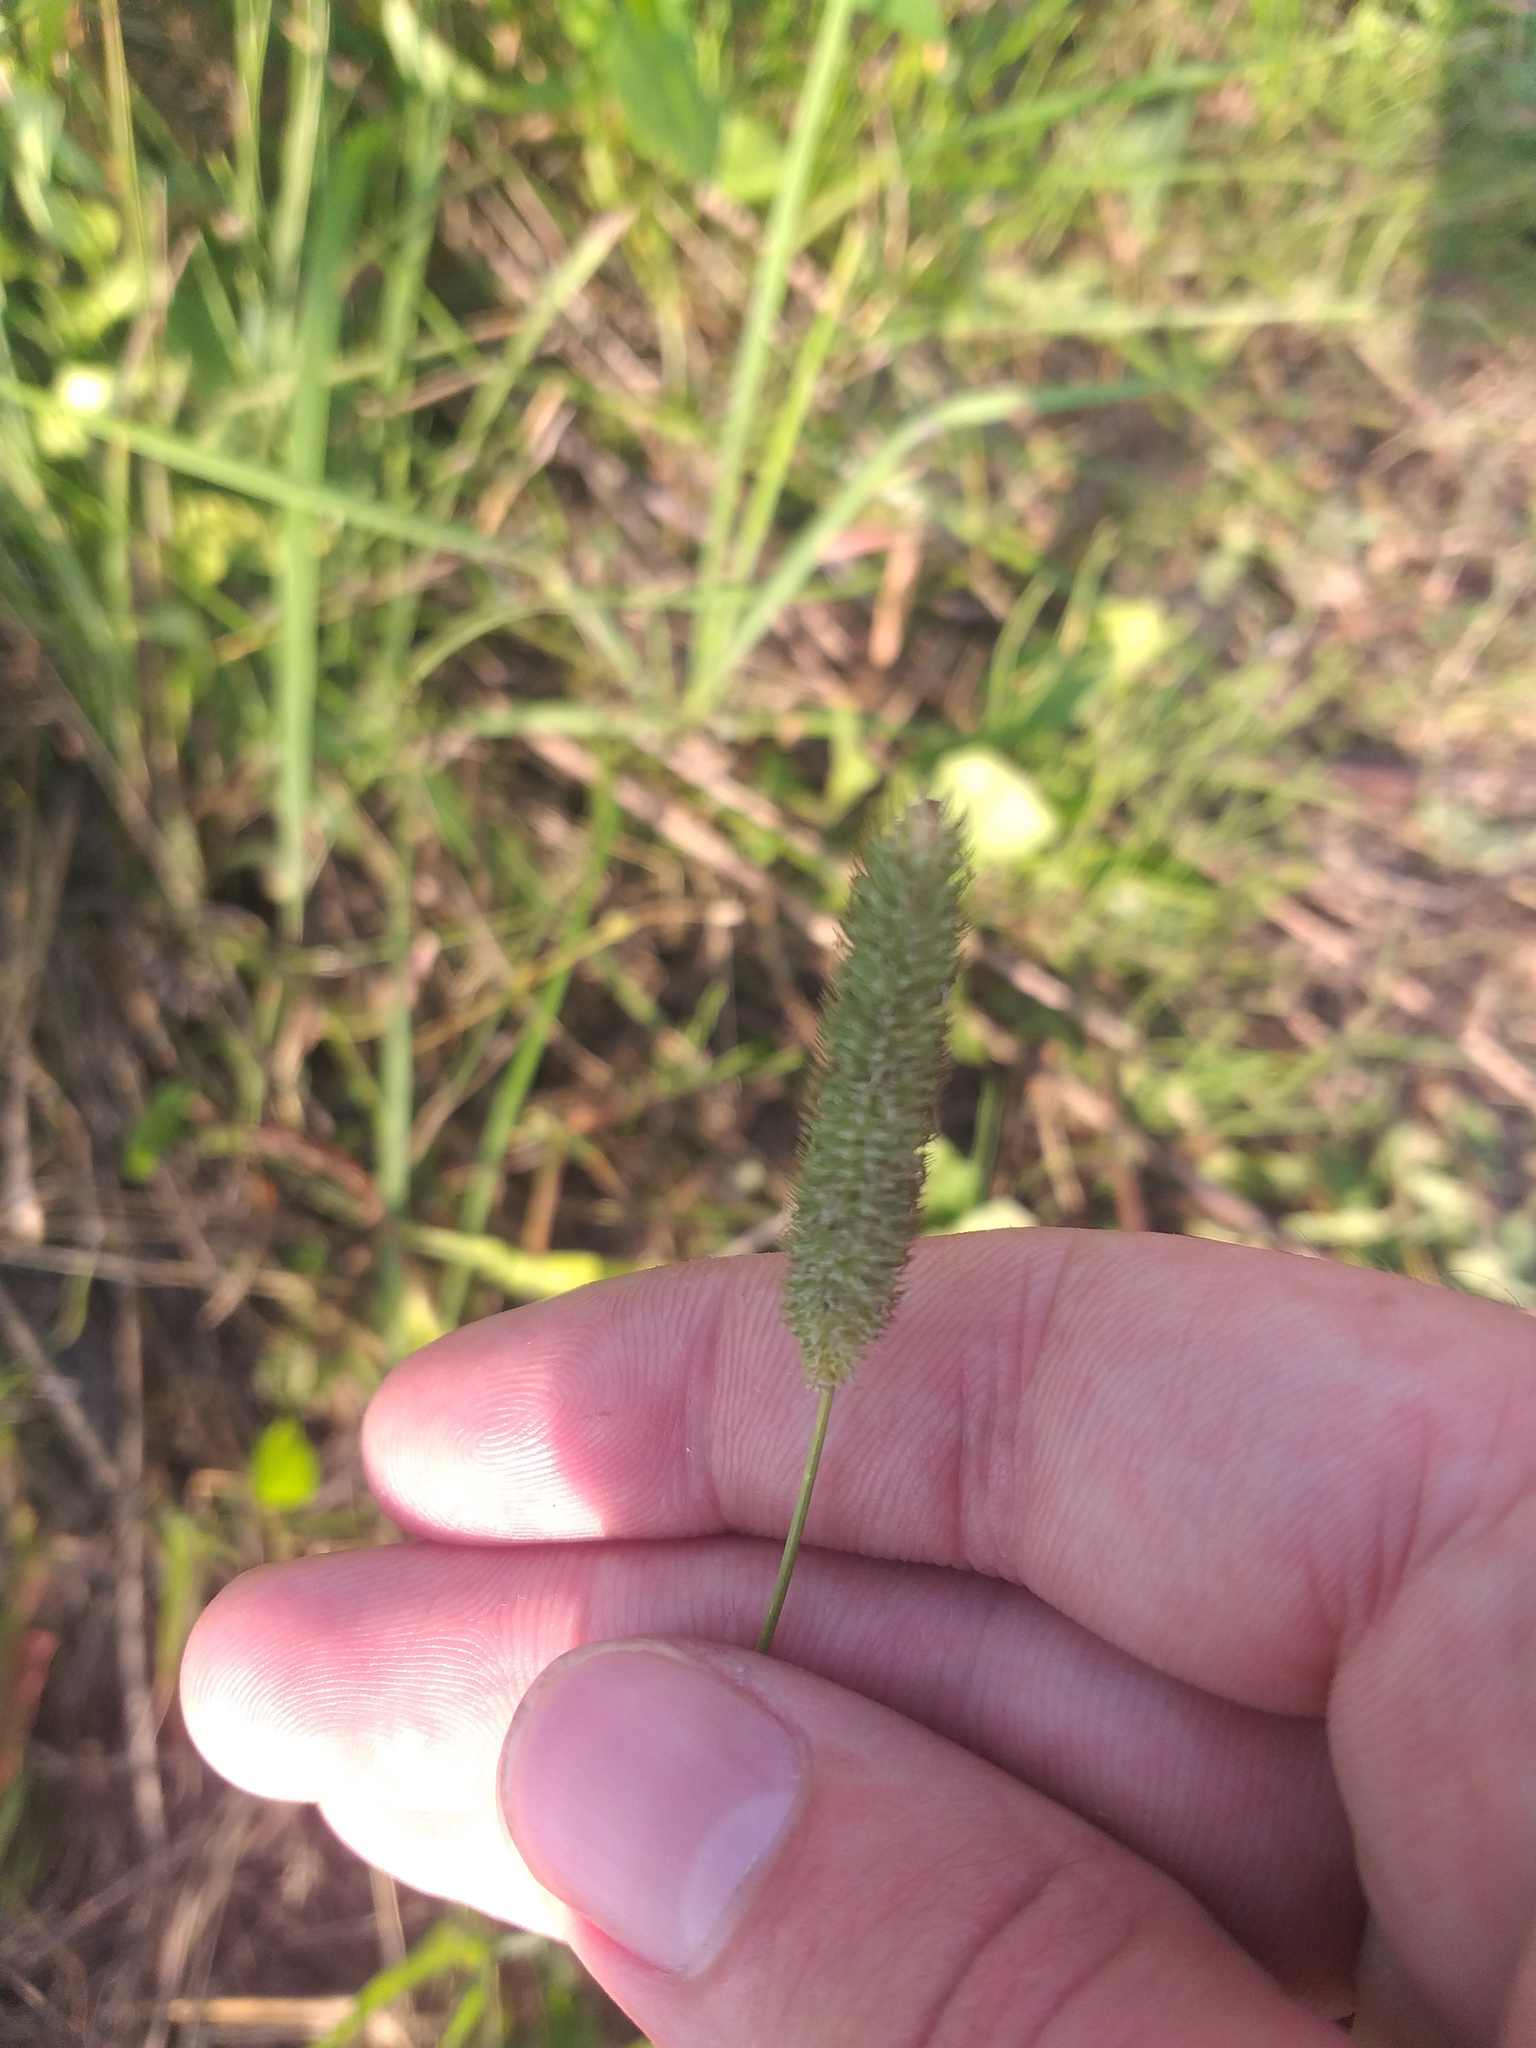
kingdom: Plantae
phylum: Tracheophyta
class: Liliopsida
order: Poales
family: Poaceae
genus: Phleum
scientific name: Phleum pratense
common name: Timothy grass
